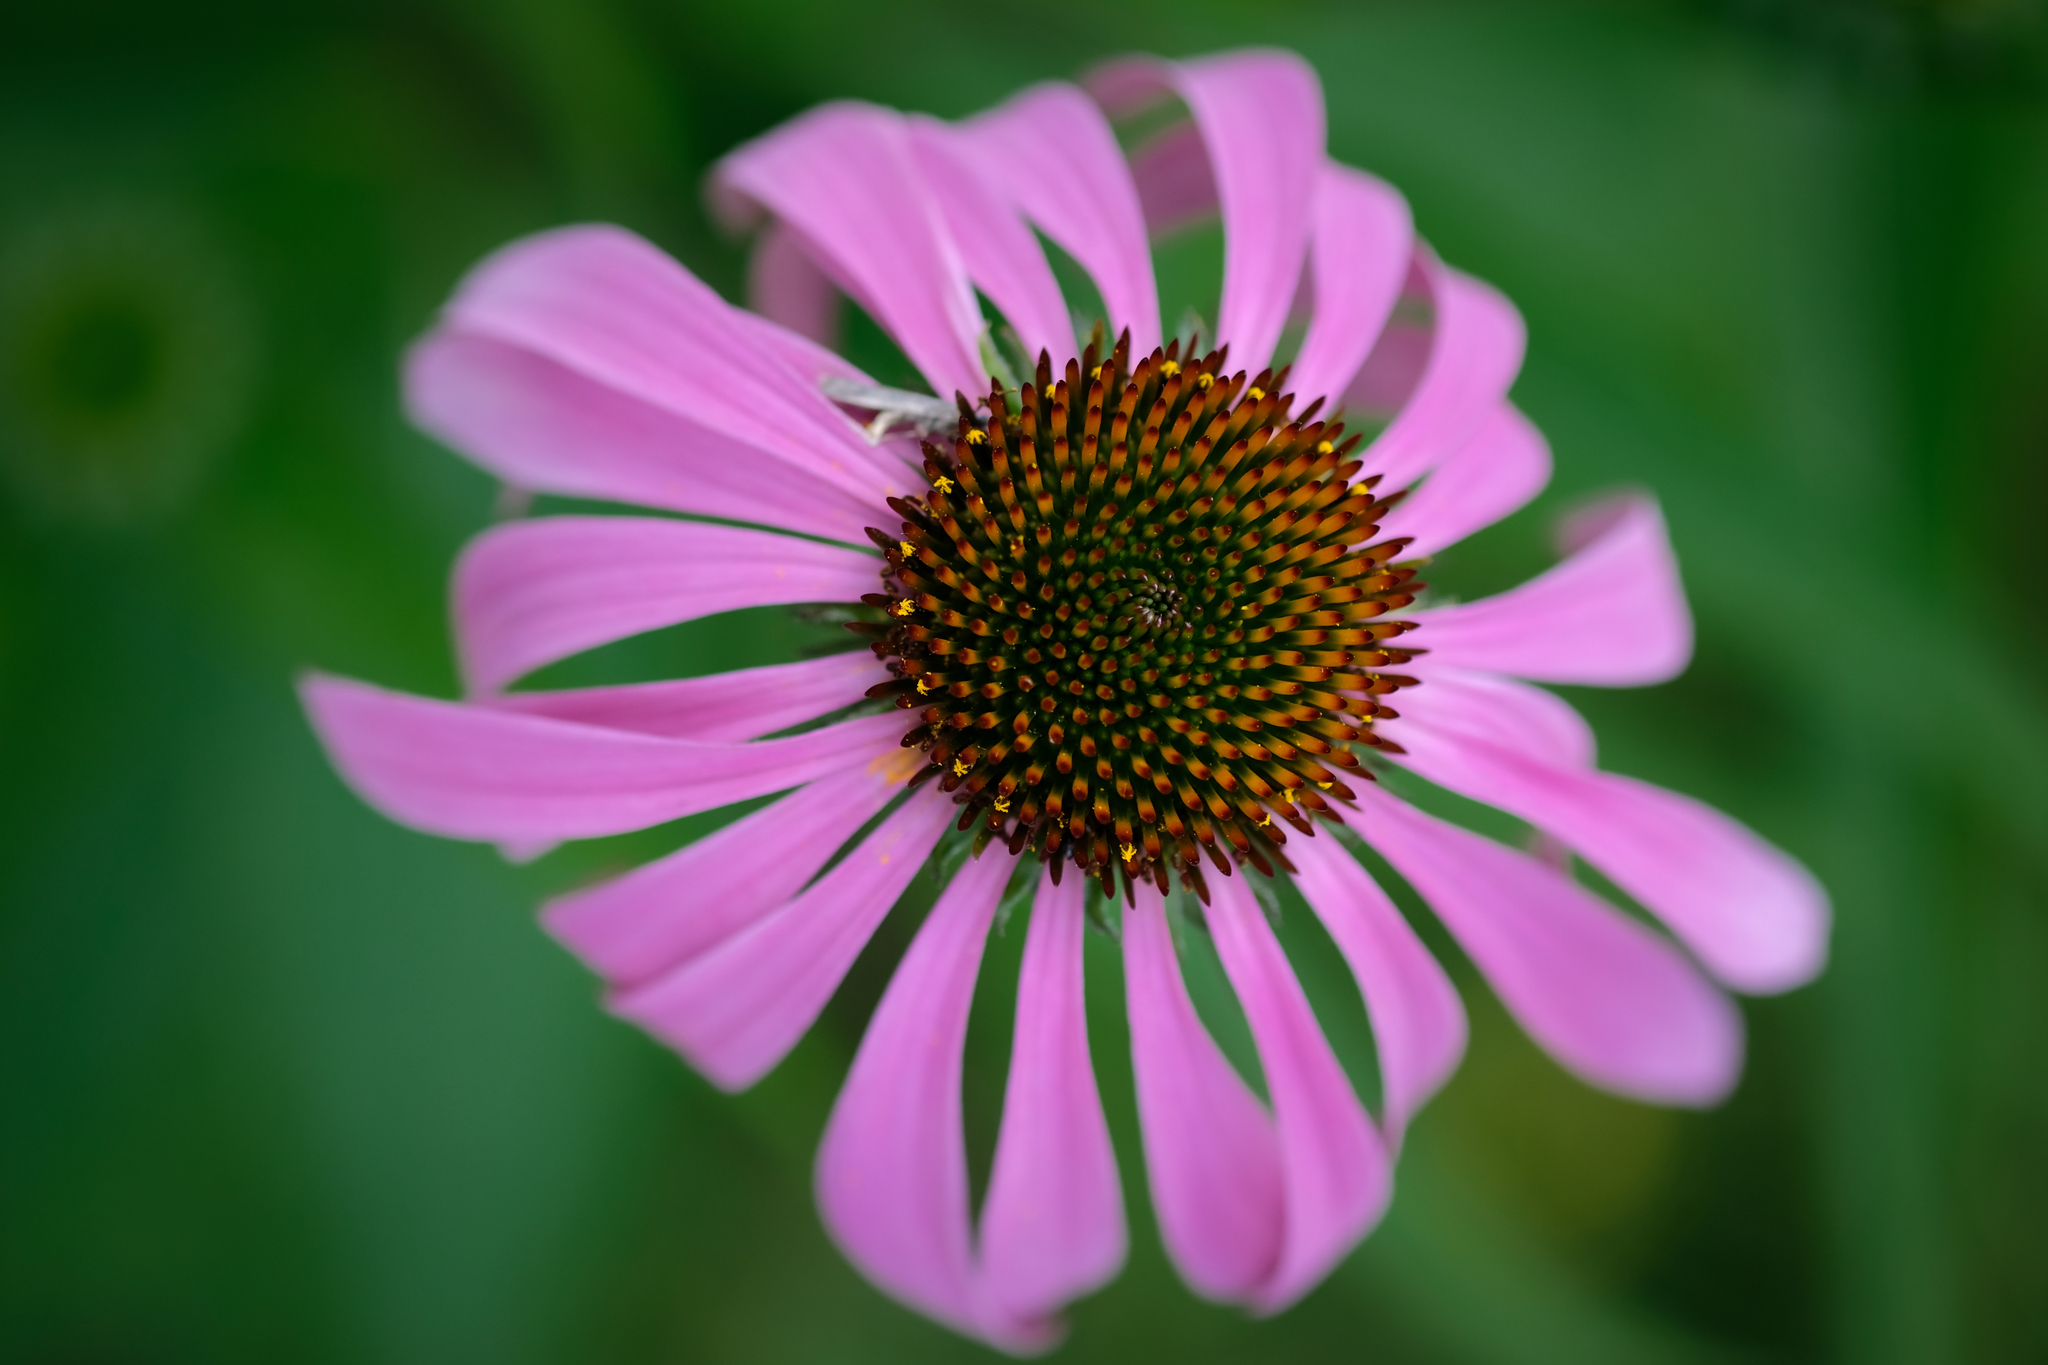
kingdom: Plantae
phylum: Tracheophyta
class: Magnoliopsida
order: Asterales
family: Asteraceae
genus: Echinacea
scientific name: Echinacea purpurea
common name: Broad-leaved purple coneflower
